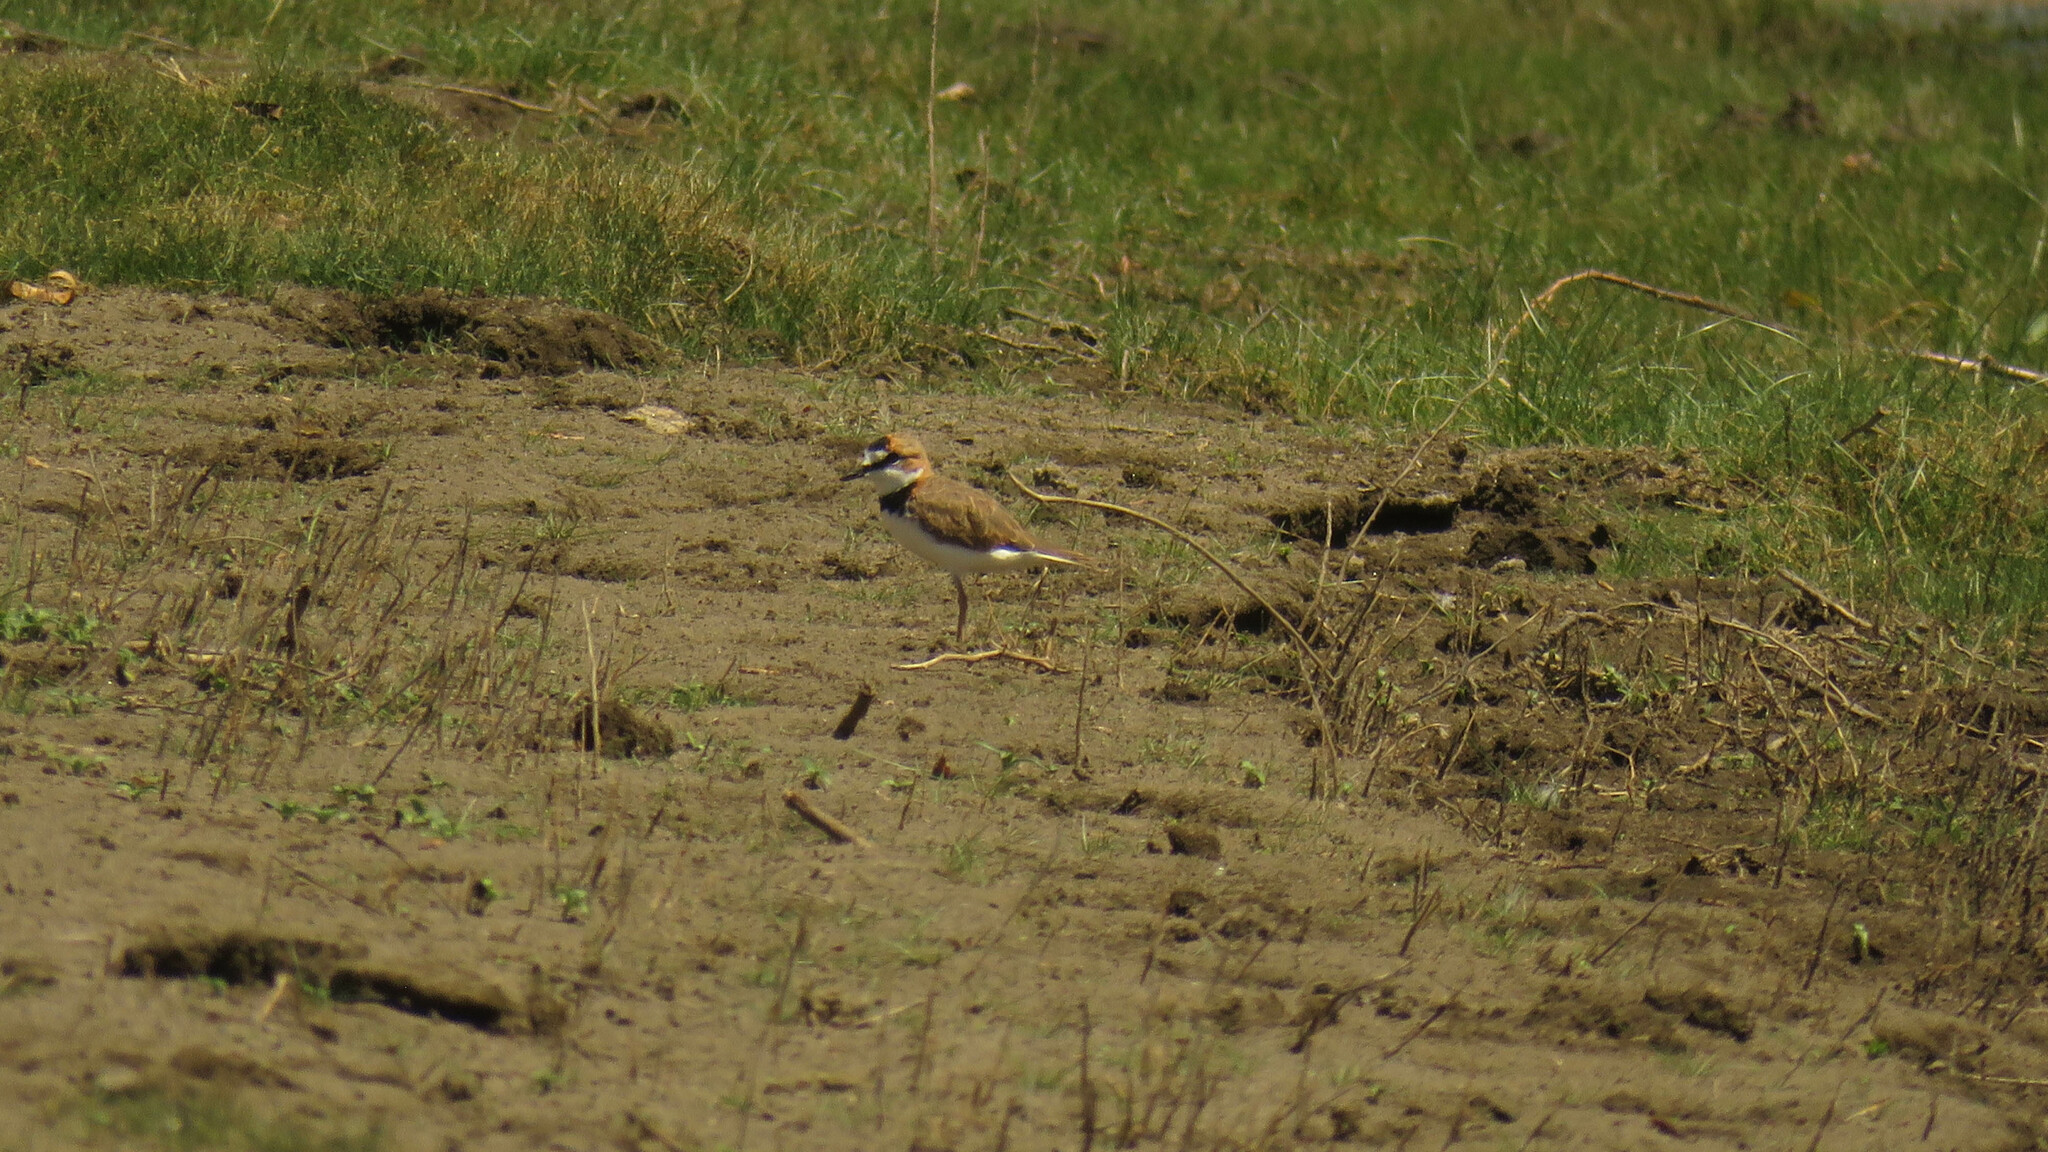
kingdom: Animalia
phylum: Chordata
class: Aves
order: Charadriiformes
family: Charadriidae
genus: Anarhynchus
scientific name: Anarhynchus
